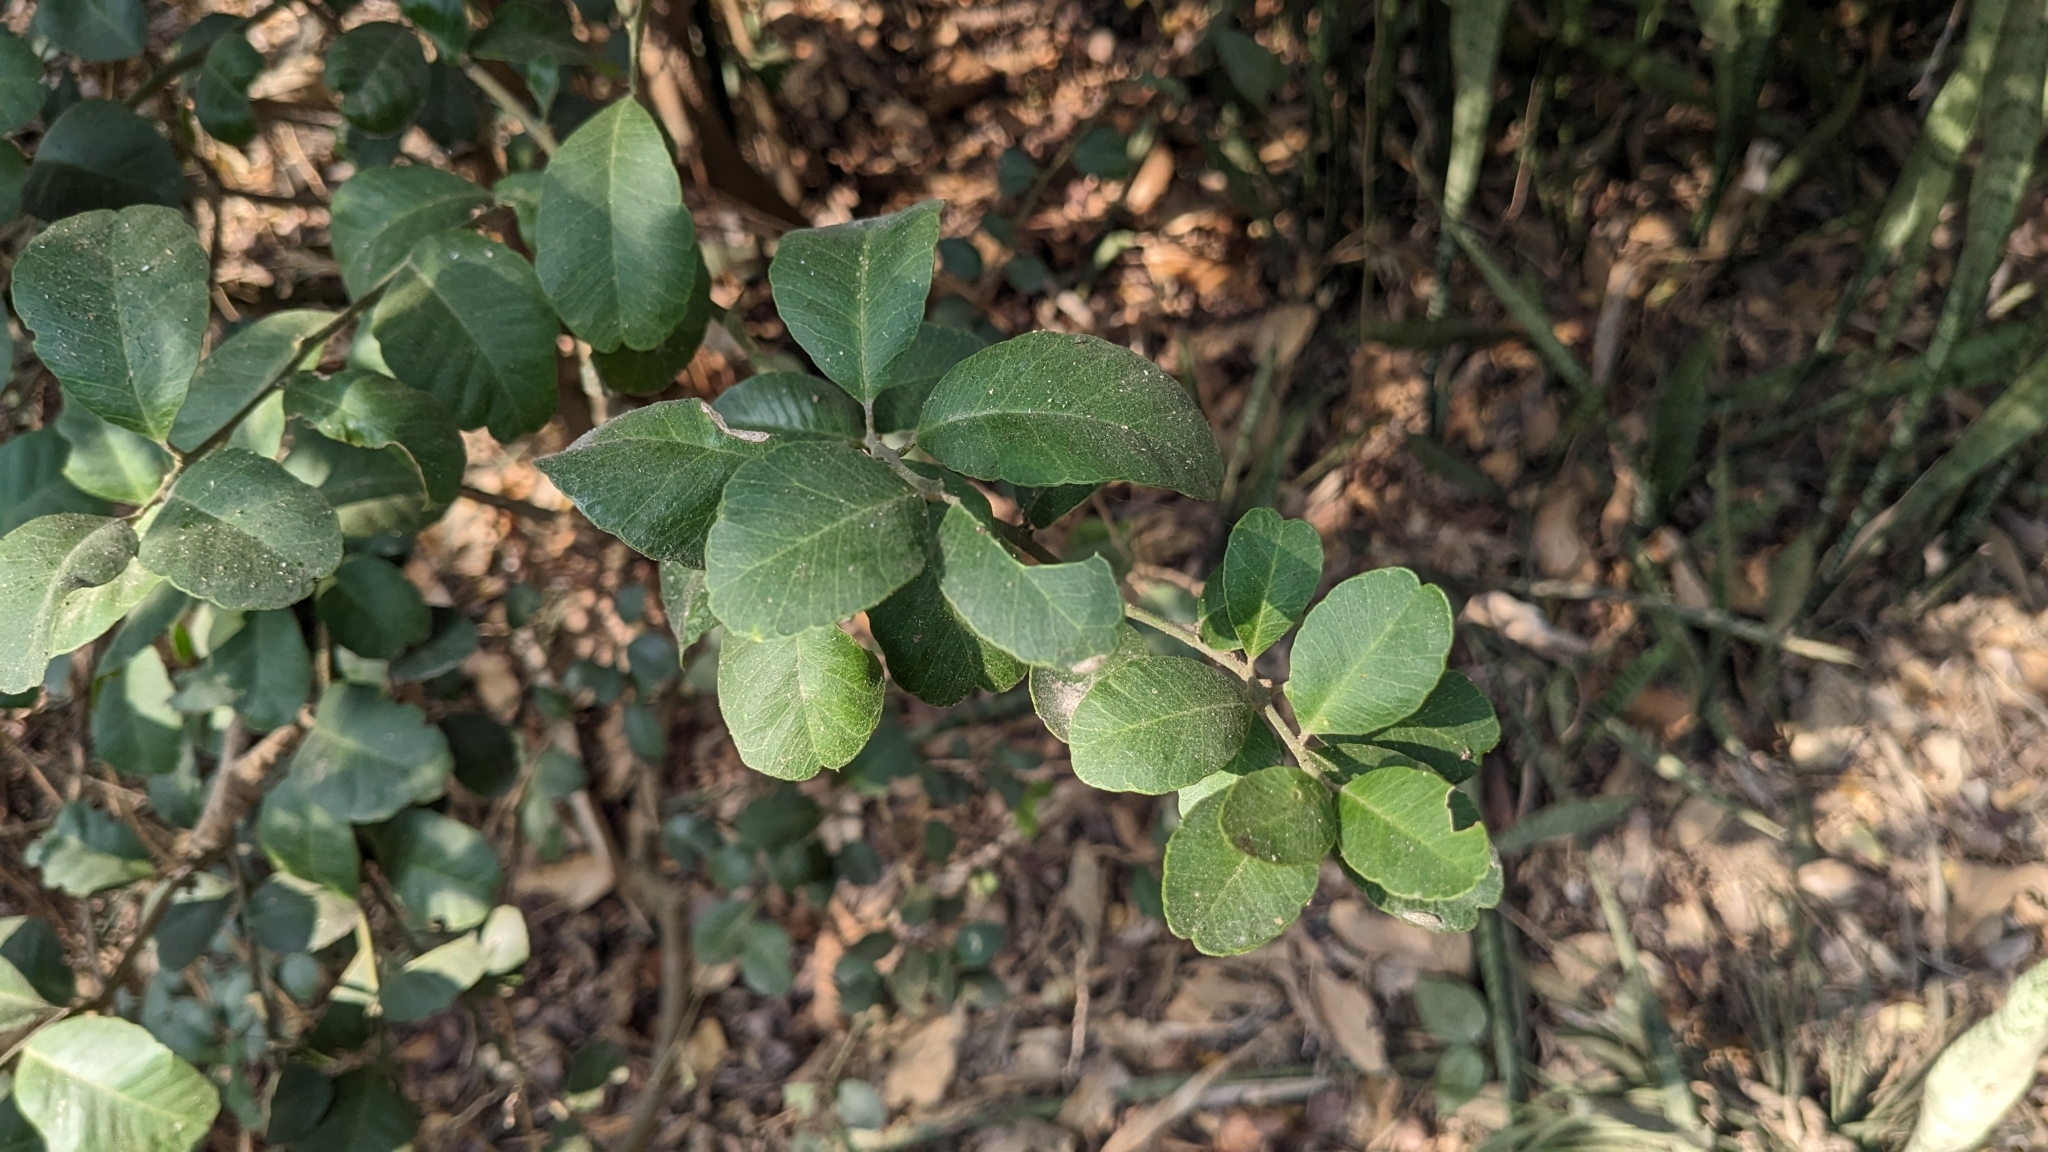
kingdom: Plantae
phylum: Tracheophyta
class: Magnoliopsida
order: Sapindales
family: Rutaceae
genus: Atalantia
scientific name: Atalantia buxifolia
